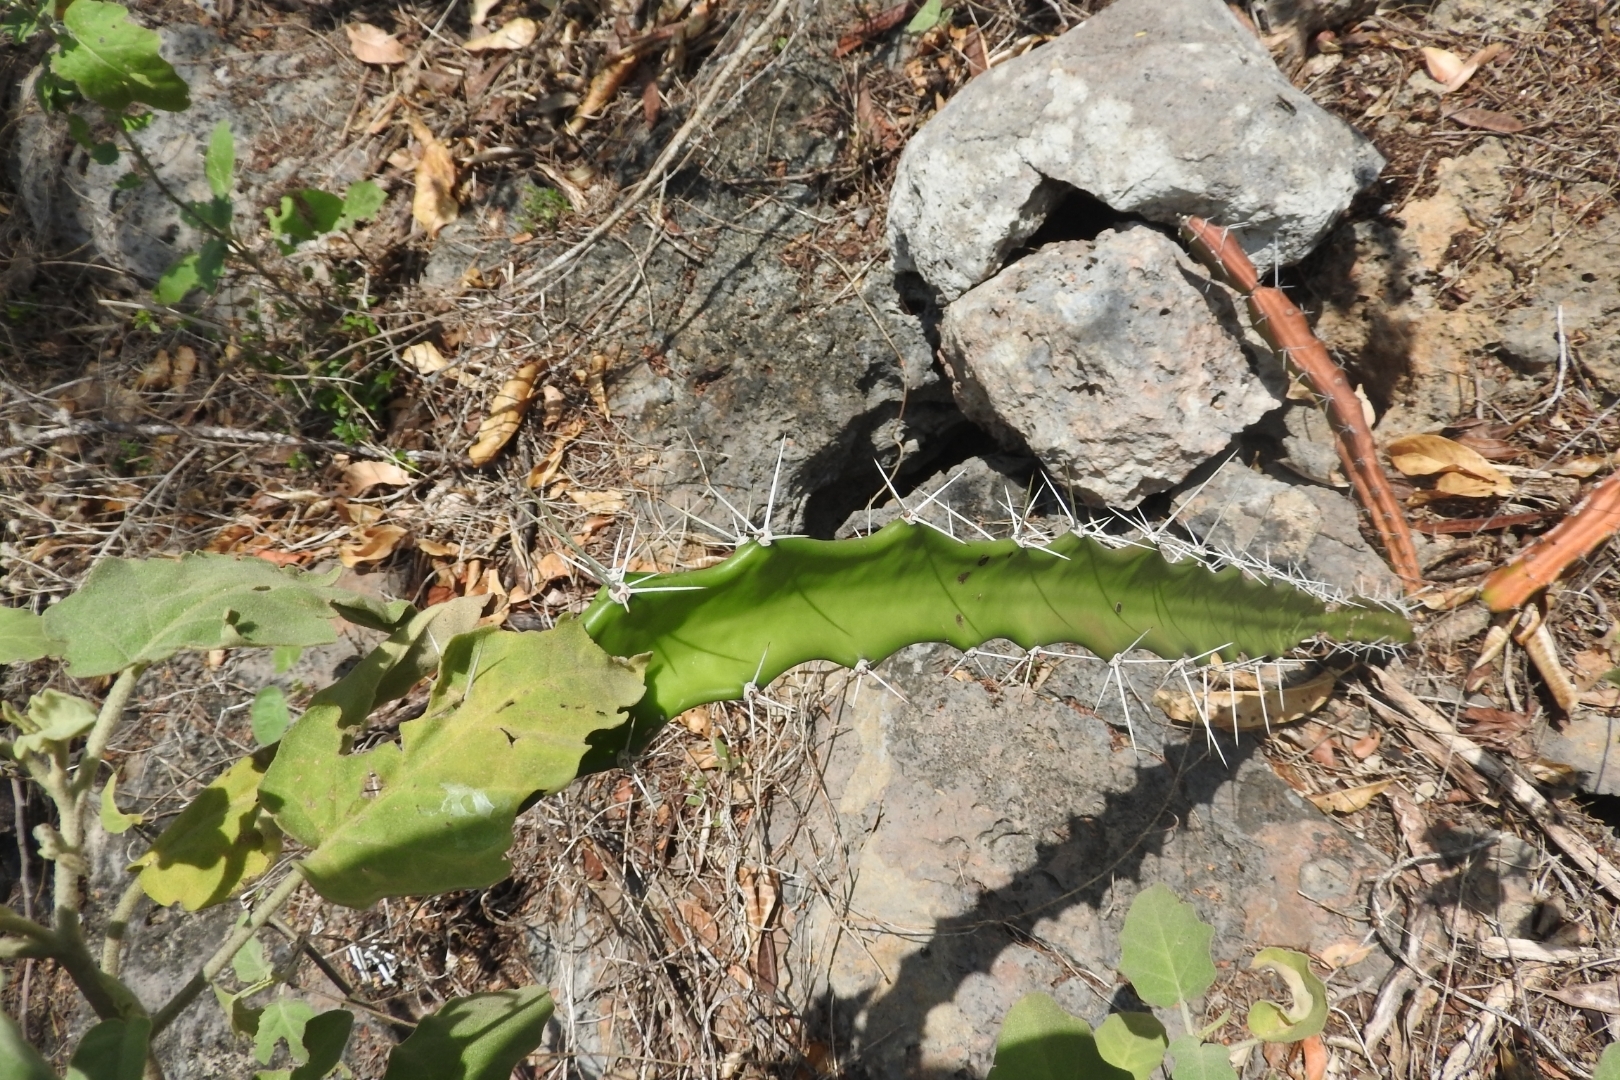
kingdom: Plantae
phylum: Tracheophyta
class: Magnoliopsida
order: Caryophyllales
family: Cactaceae
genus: Acanthocereus
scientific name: Acanthocereus tetragonus
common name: Triangle cactus
